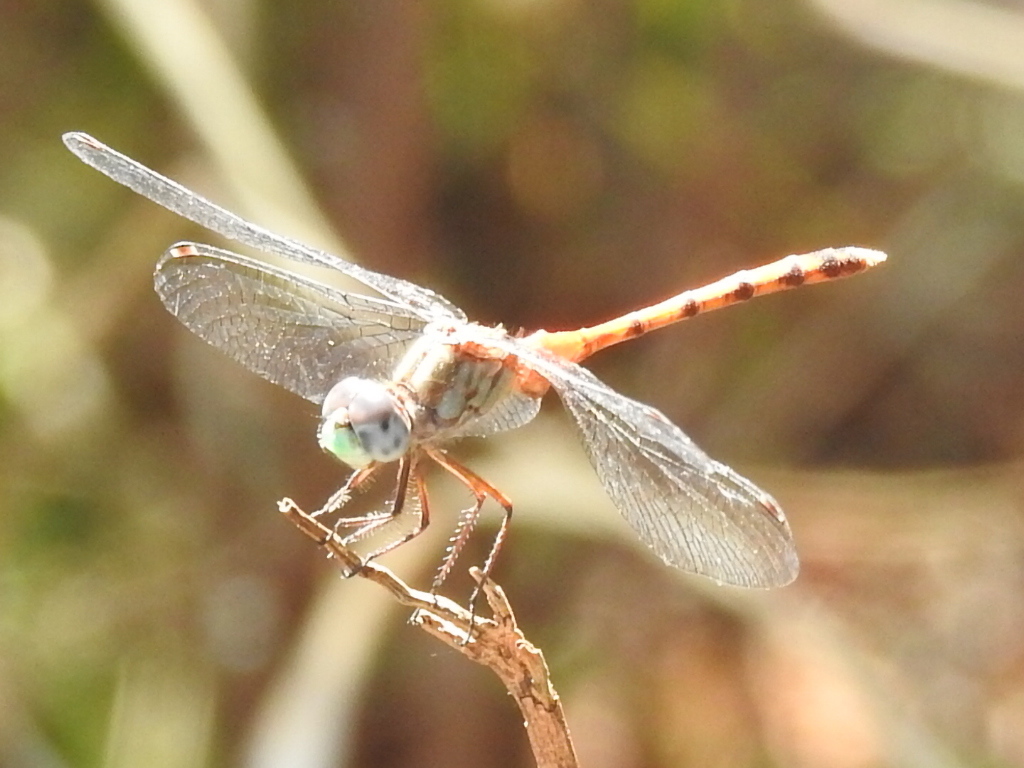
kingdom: Animalia
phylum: Arthropoda
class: Insecta
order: Odonata
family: Libellulidae
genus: Sympetrum
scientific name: Sympetrum ambiguum
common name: Blue-faced meadowhawk
